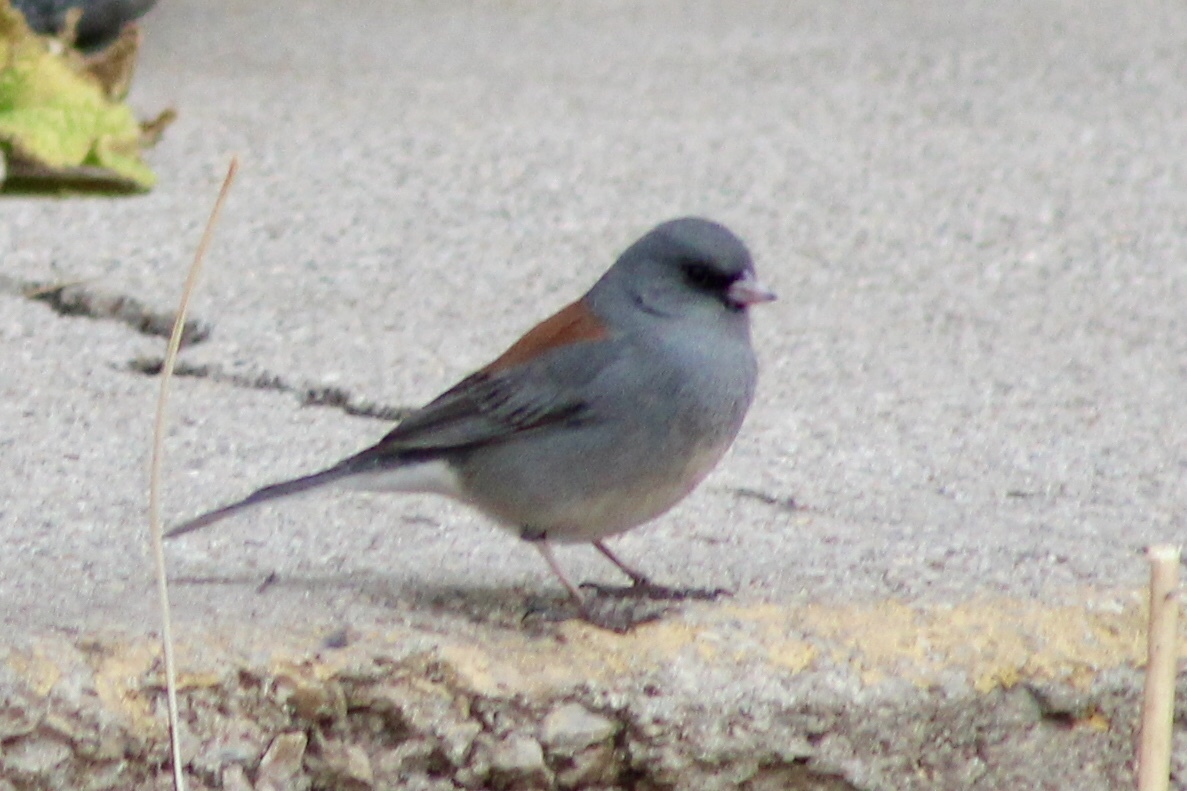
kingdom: Animalia
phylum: Chordata
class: Aves
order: Passeriformes
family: Passerellidae
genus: Junco
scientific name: Junco hyemalis
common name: Dark-eyed junco
